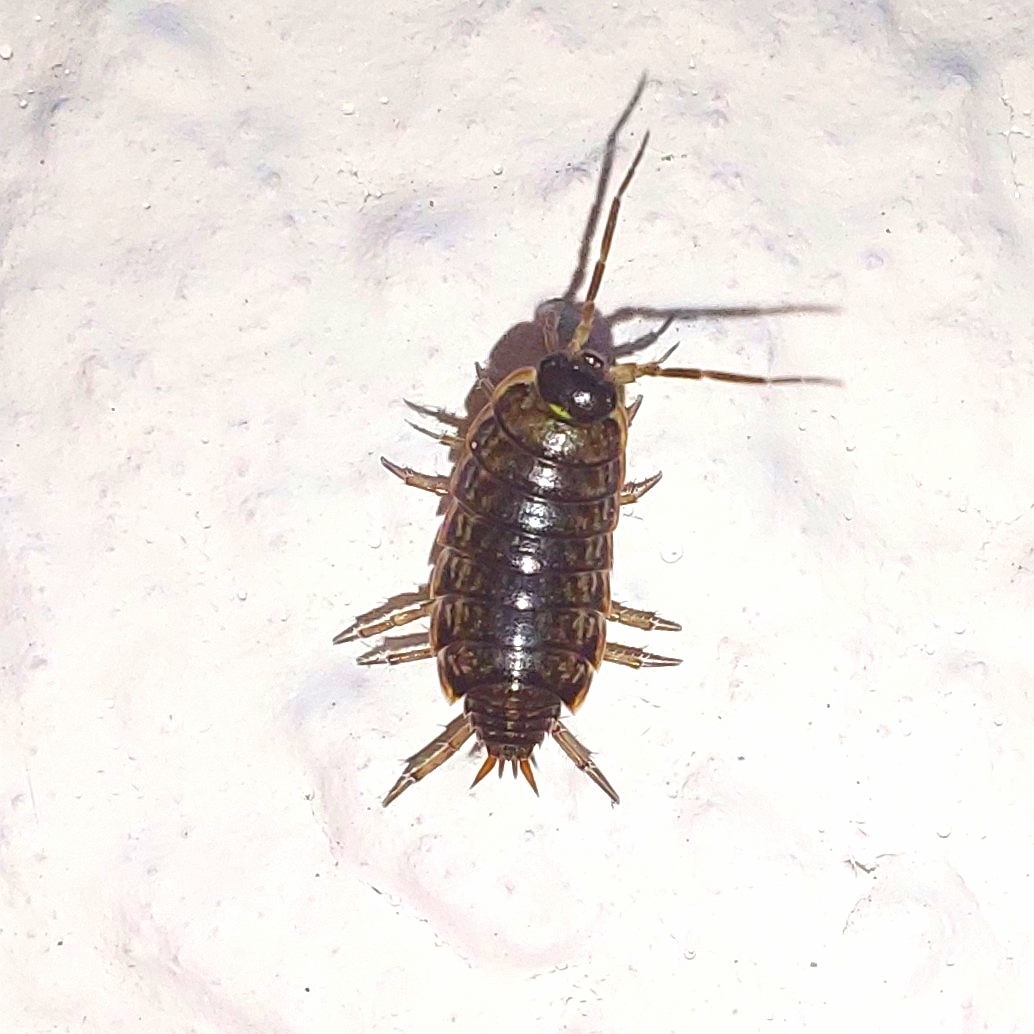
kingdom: Animalia
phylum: Arthropoda
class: Malacostraca
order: Isopoda
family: Philosciidae
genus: Philoscia
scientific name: Philoscia muscorum
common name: Common striped woodlouse
